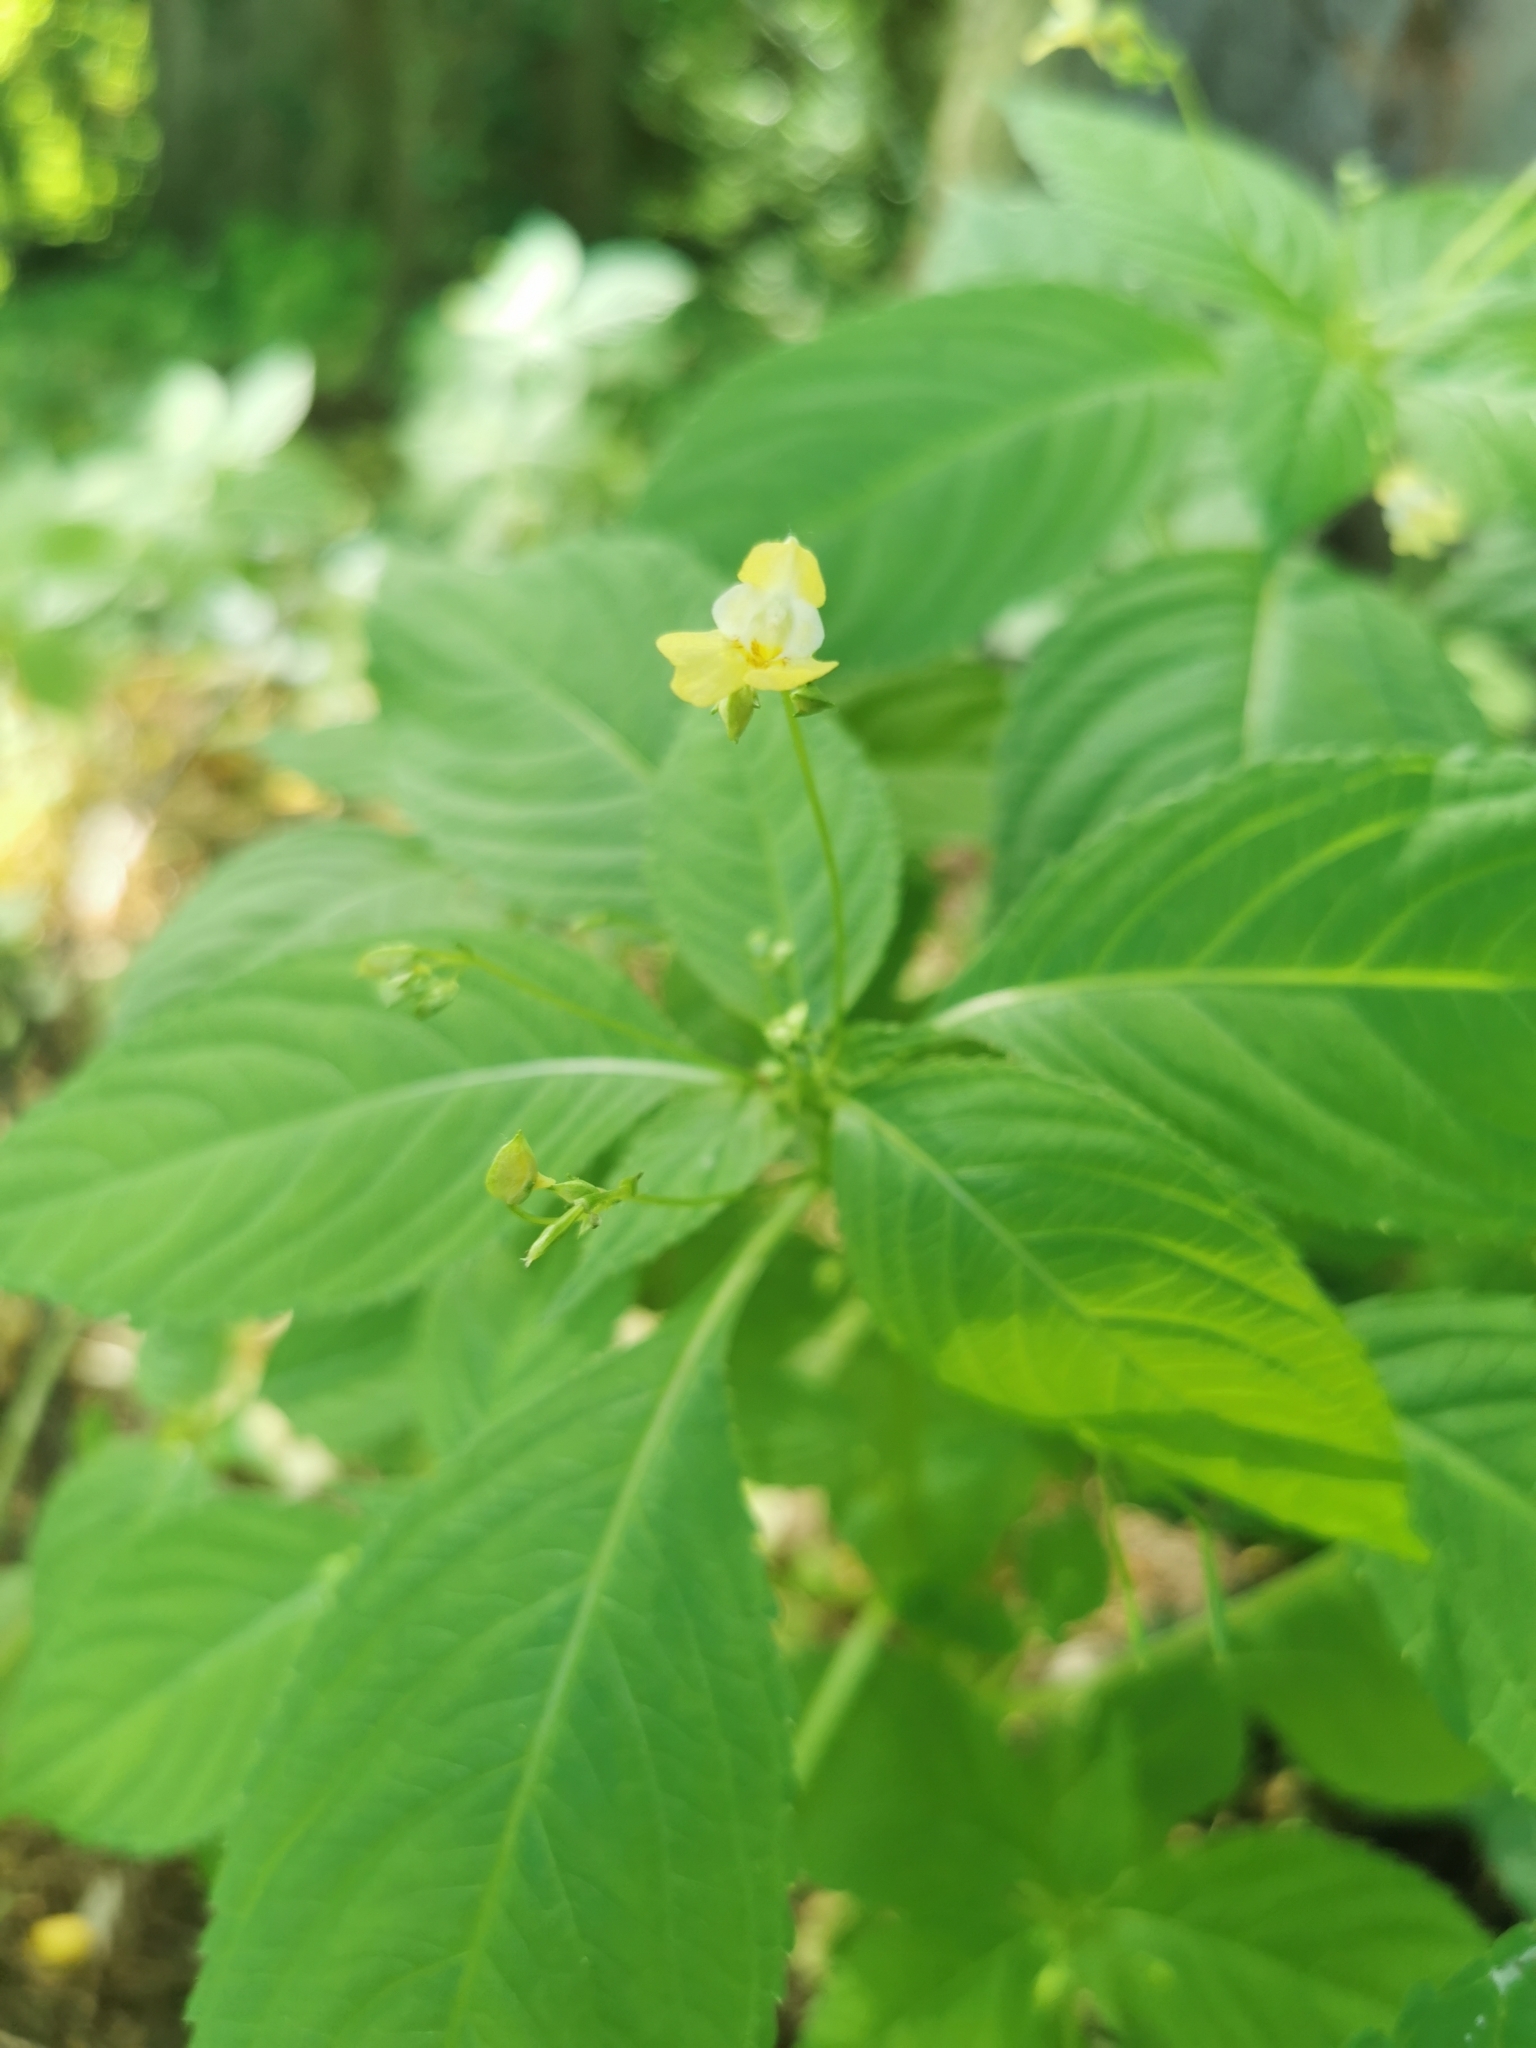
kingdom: Plantae
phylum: Tracheophyta
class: Magnoliopsida
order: Ericales
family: Balsaminaceae
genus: Impatiens
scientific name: Impatiens parviflora
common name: Small balsam
